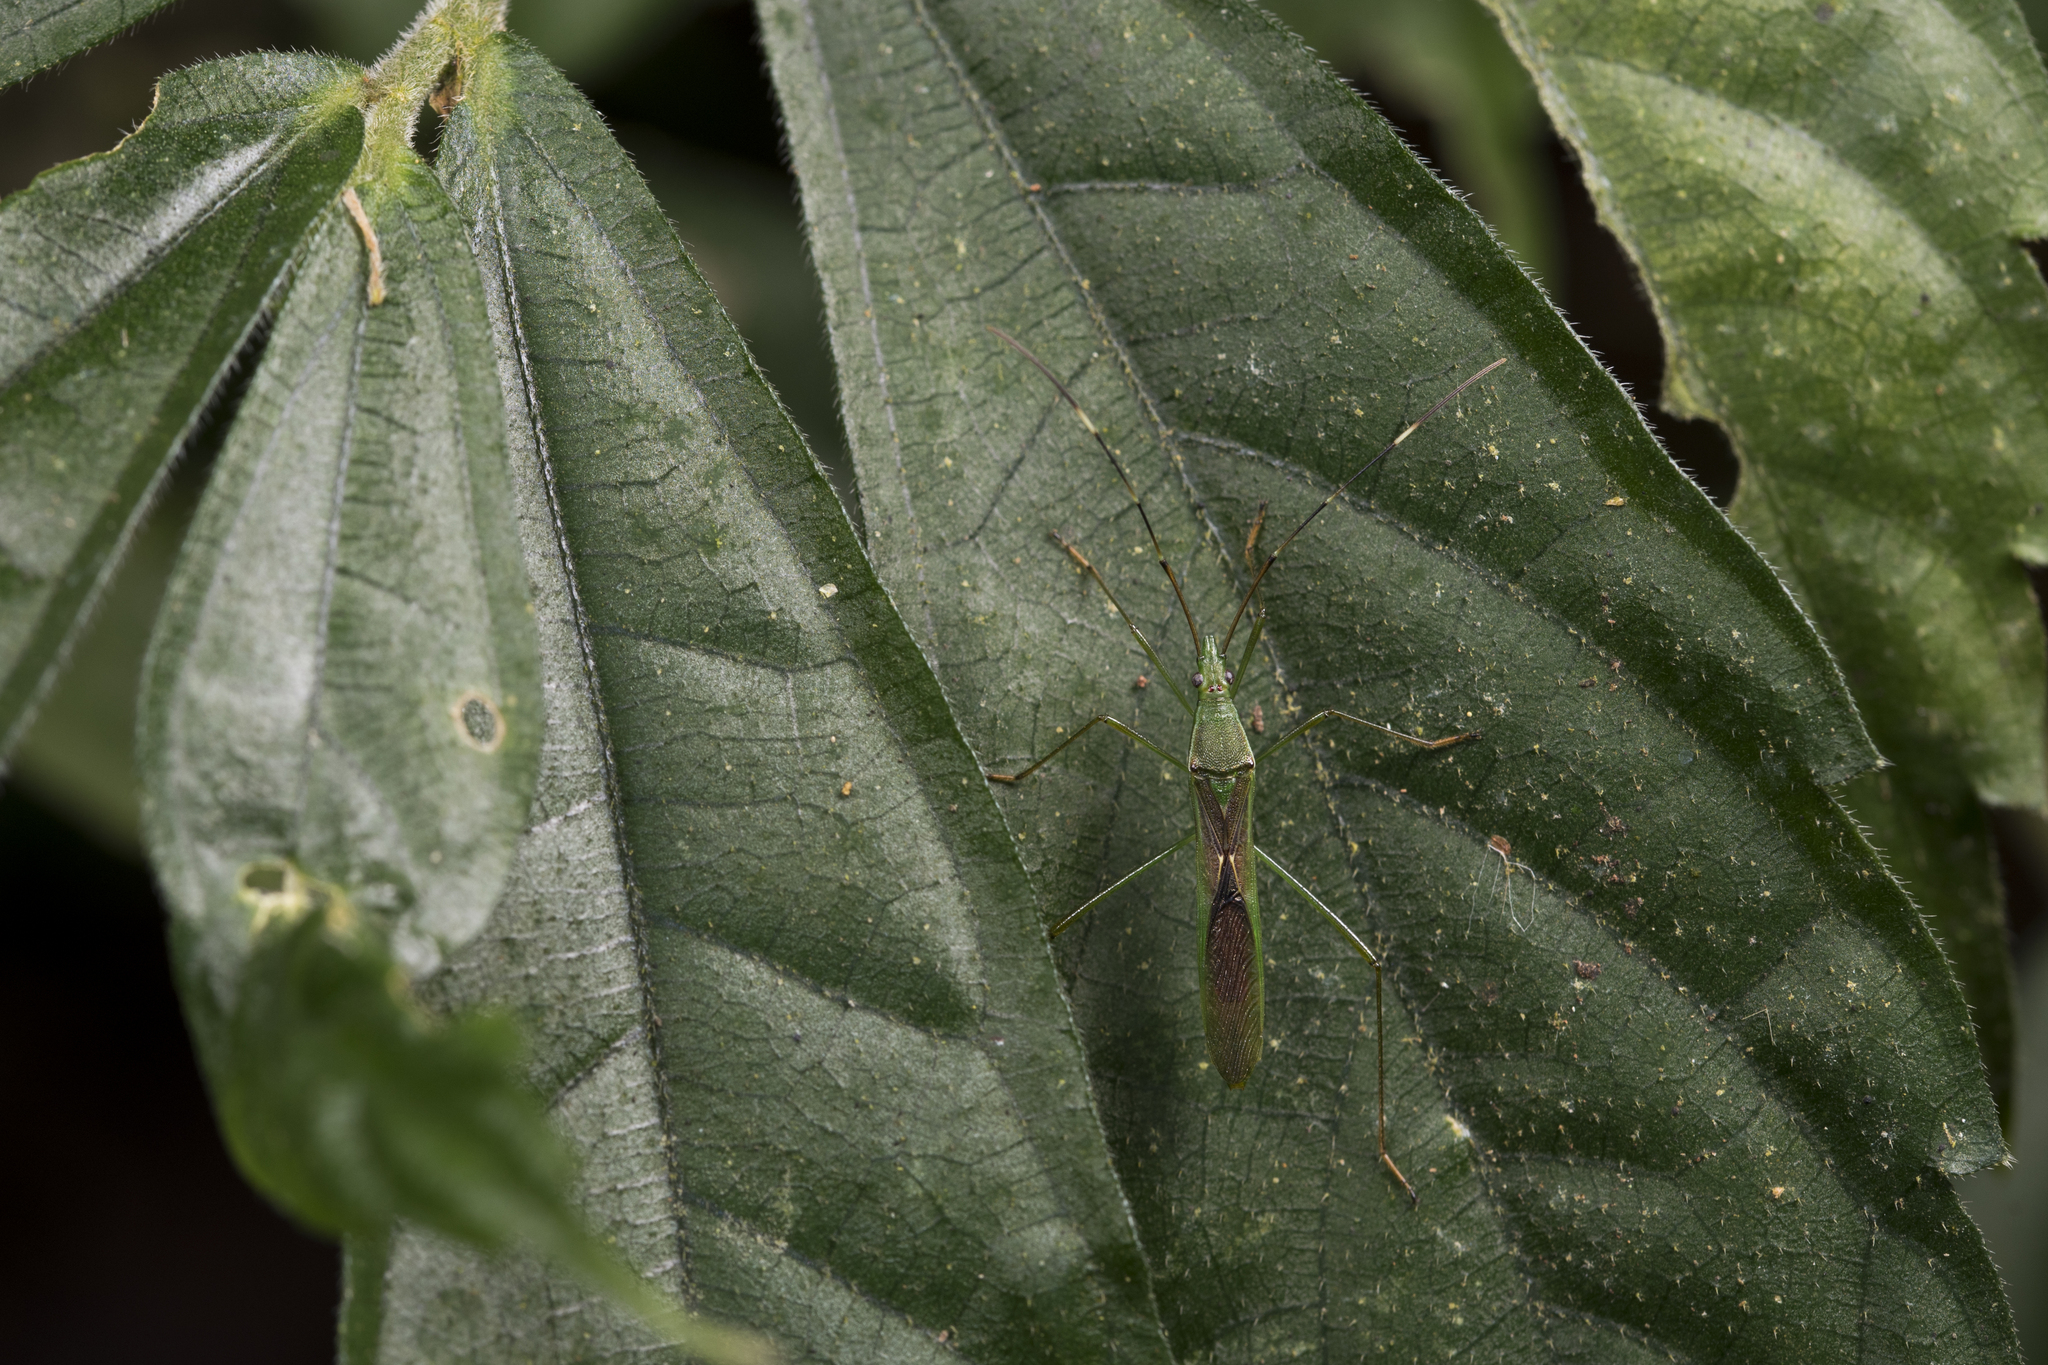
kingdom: Animalia
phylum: Arthropoda
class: Insecta
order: Hemiptera
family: Alydidae
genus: Leptocorisa
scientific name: Leptocorisa acuta
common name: Gandhi bug
